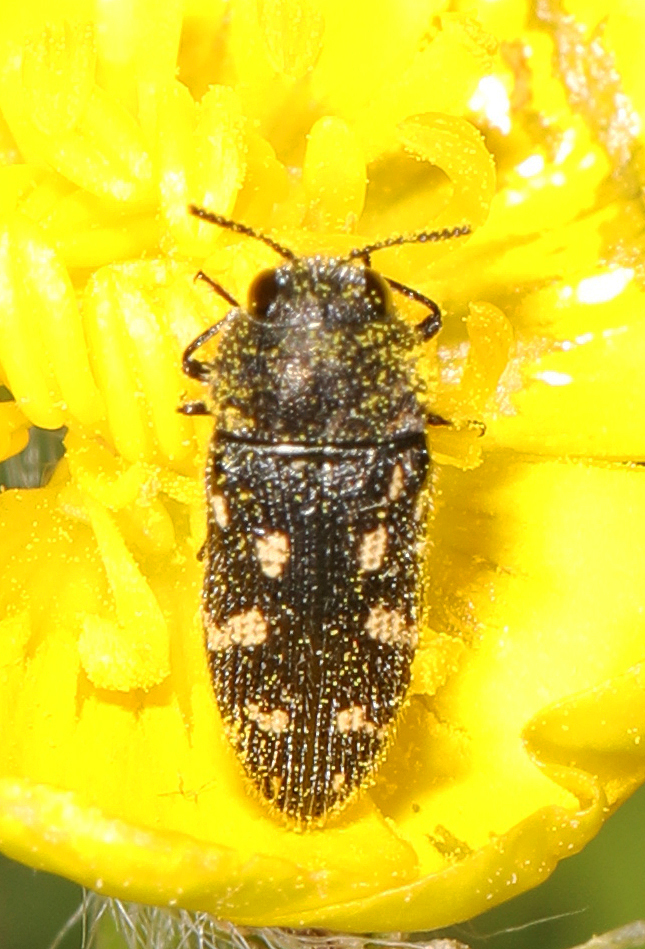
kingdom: Animalia
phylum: Arthropoda
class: Insecta
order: Coleoptera
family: Buprestidae
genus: Acmaeodera
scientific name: Acmaeodera tubulus
